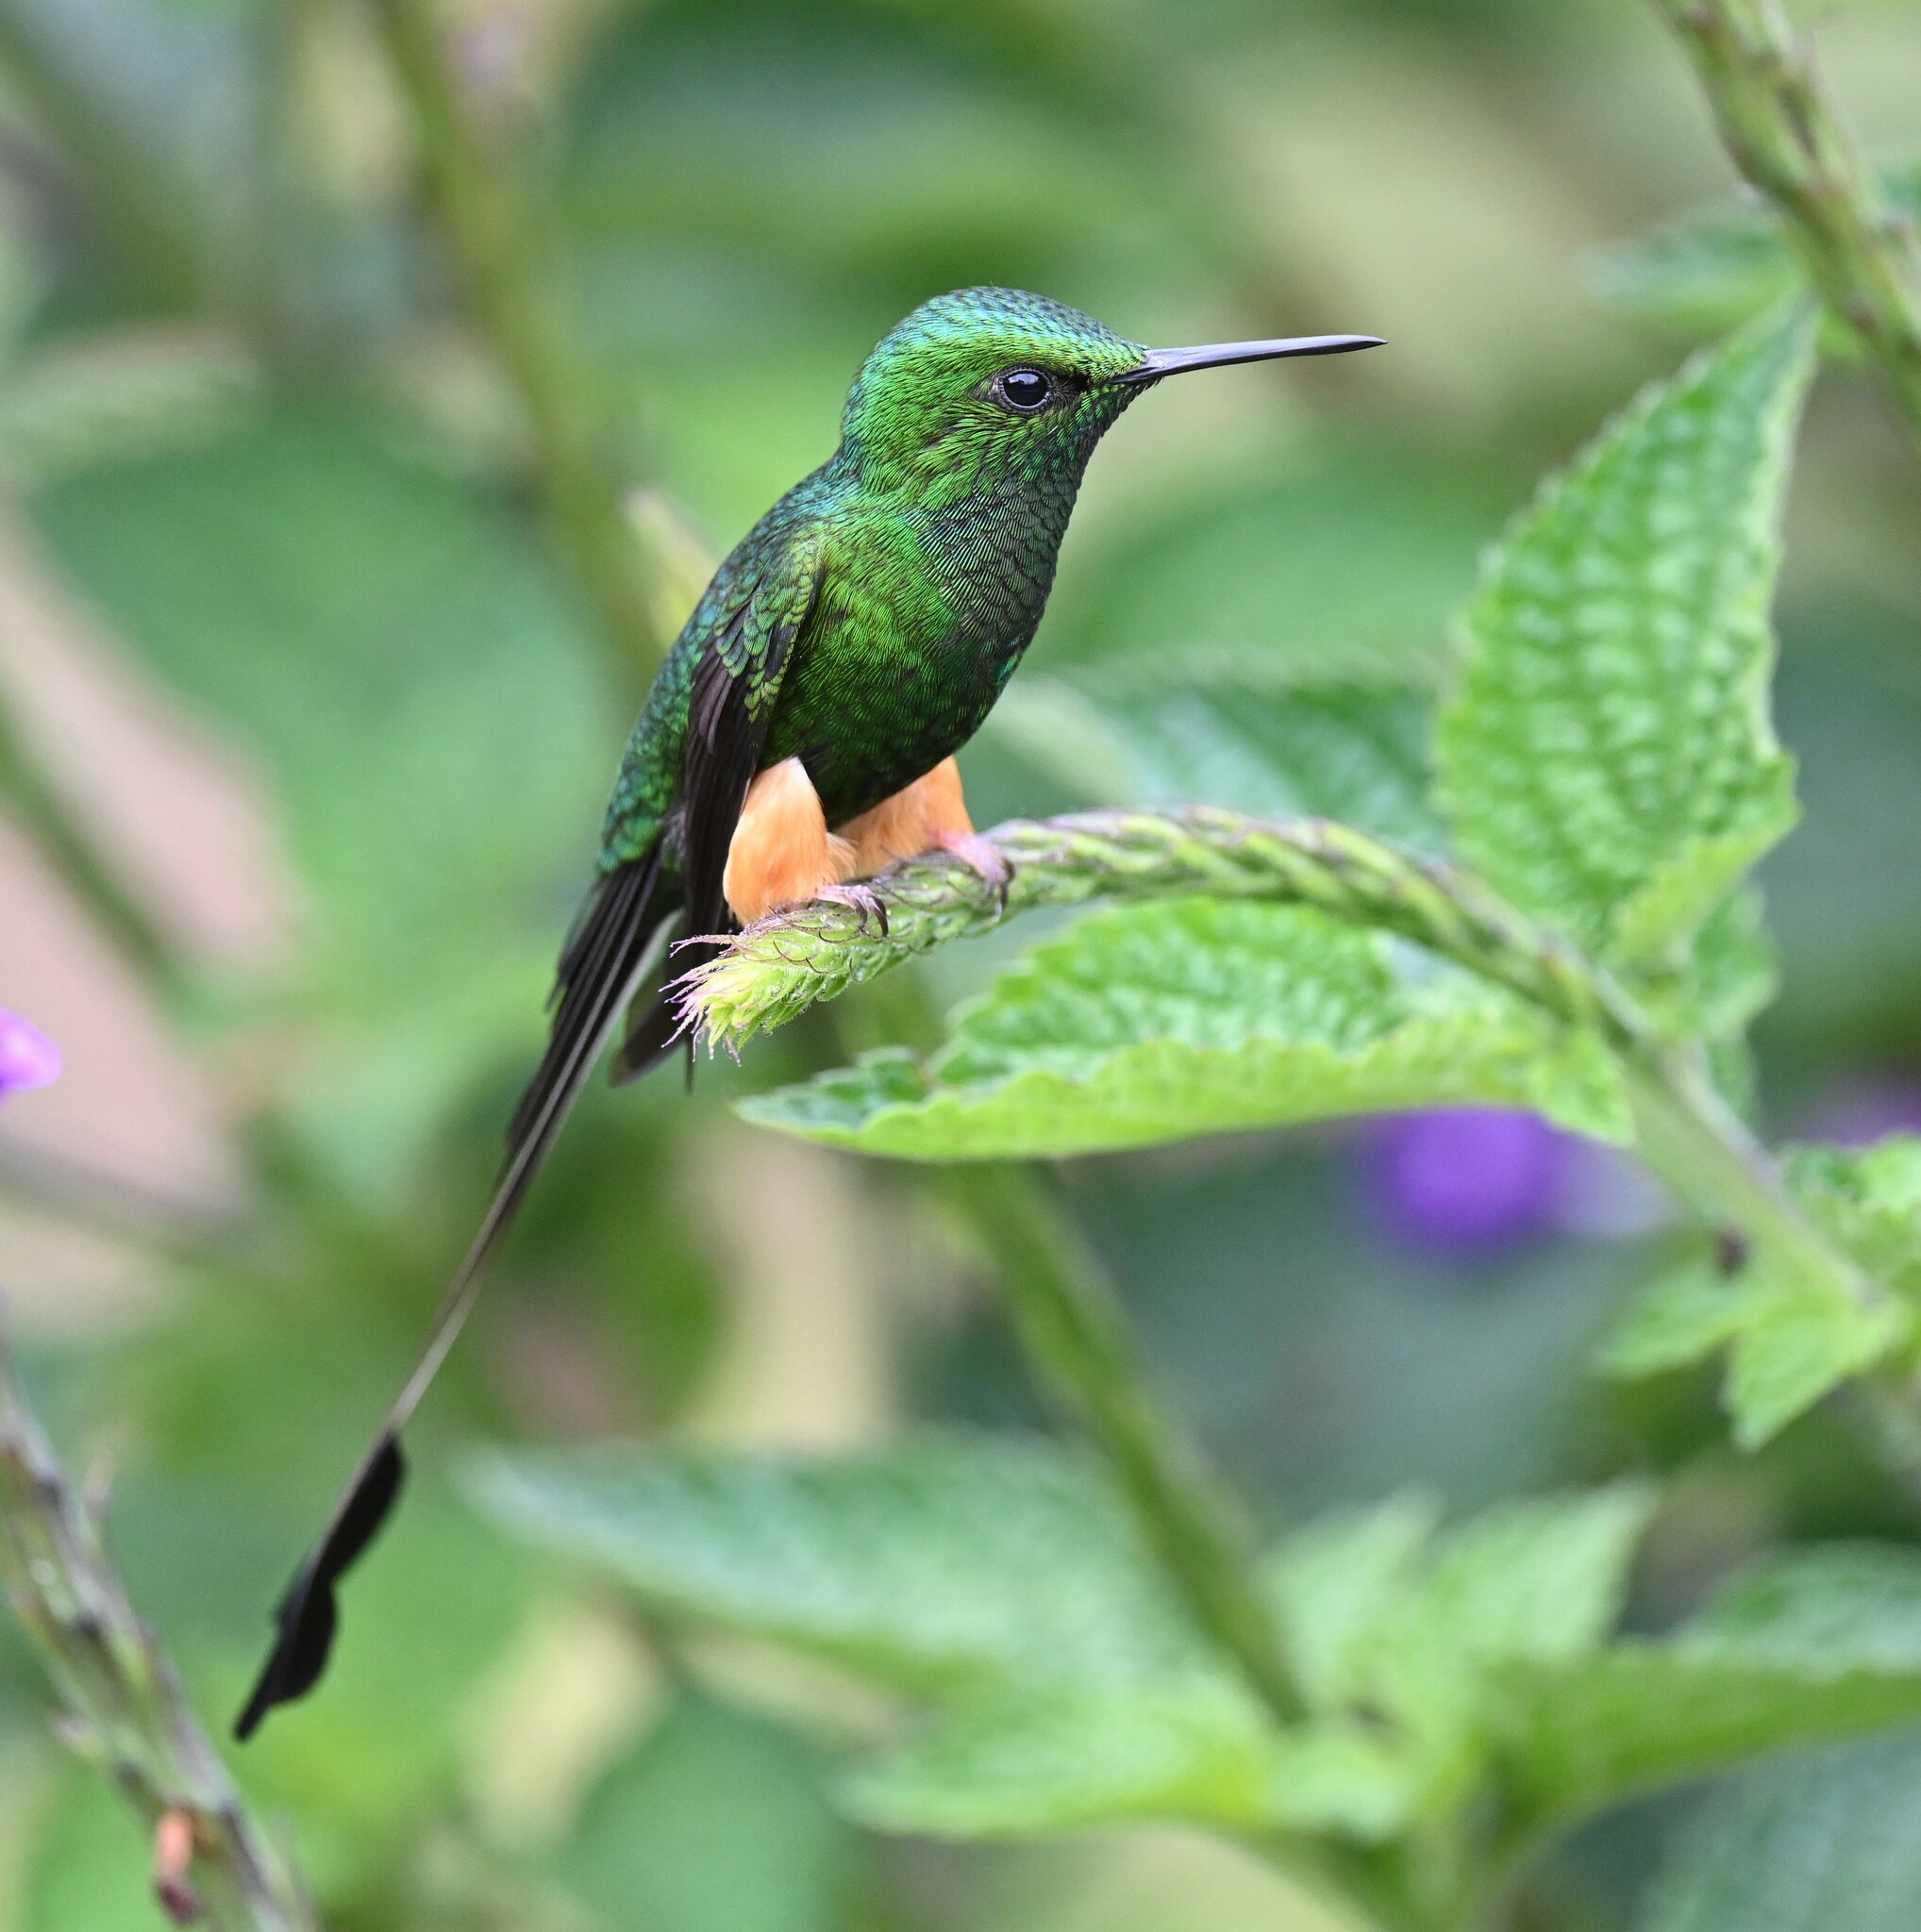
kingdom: Animalia
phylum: Chordata
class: Aves
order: Apodiformes
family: Trochilidae
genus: Ocreatus
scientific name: Ocreatus peruanus
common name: Peruvian racket-tail
